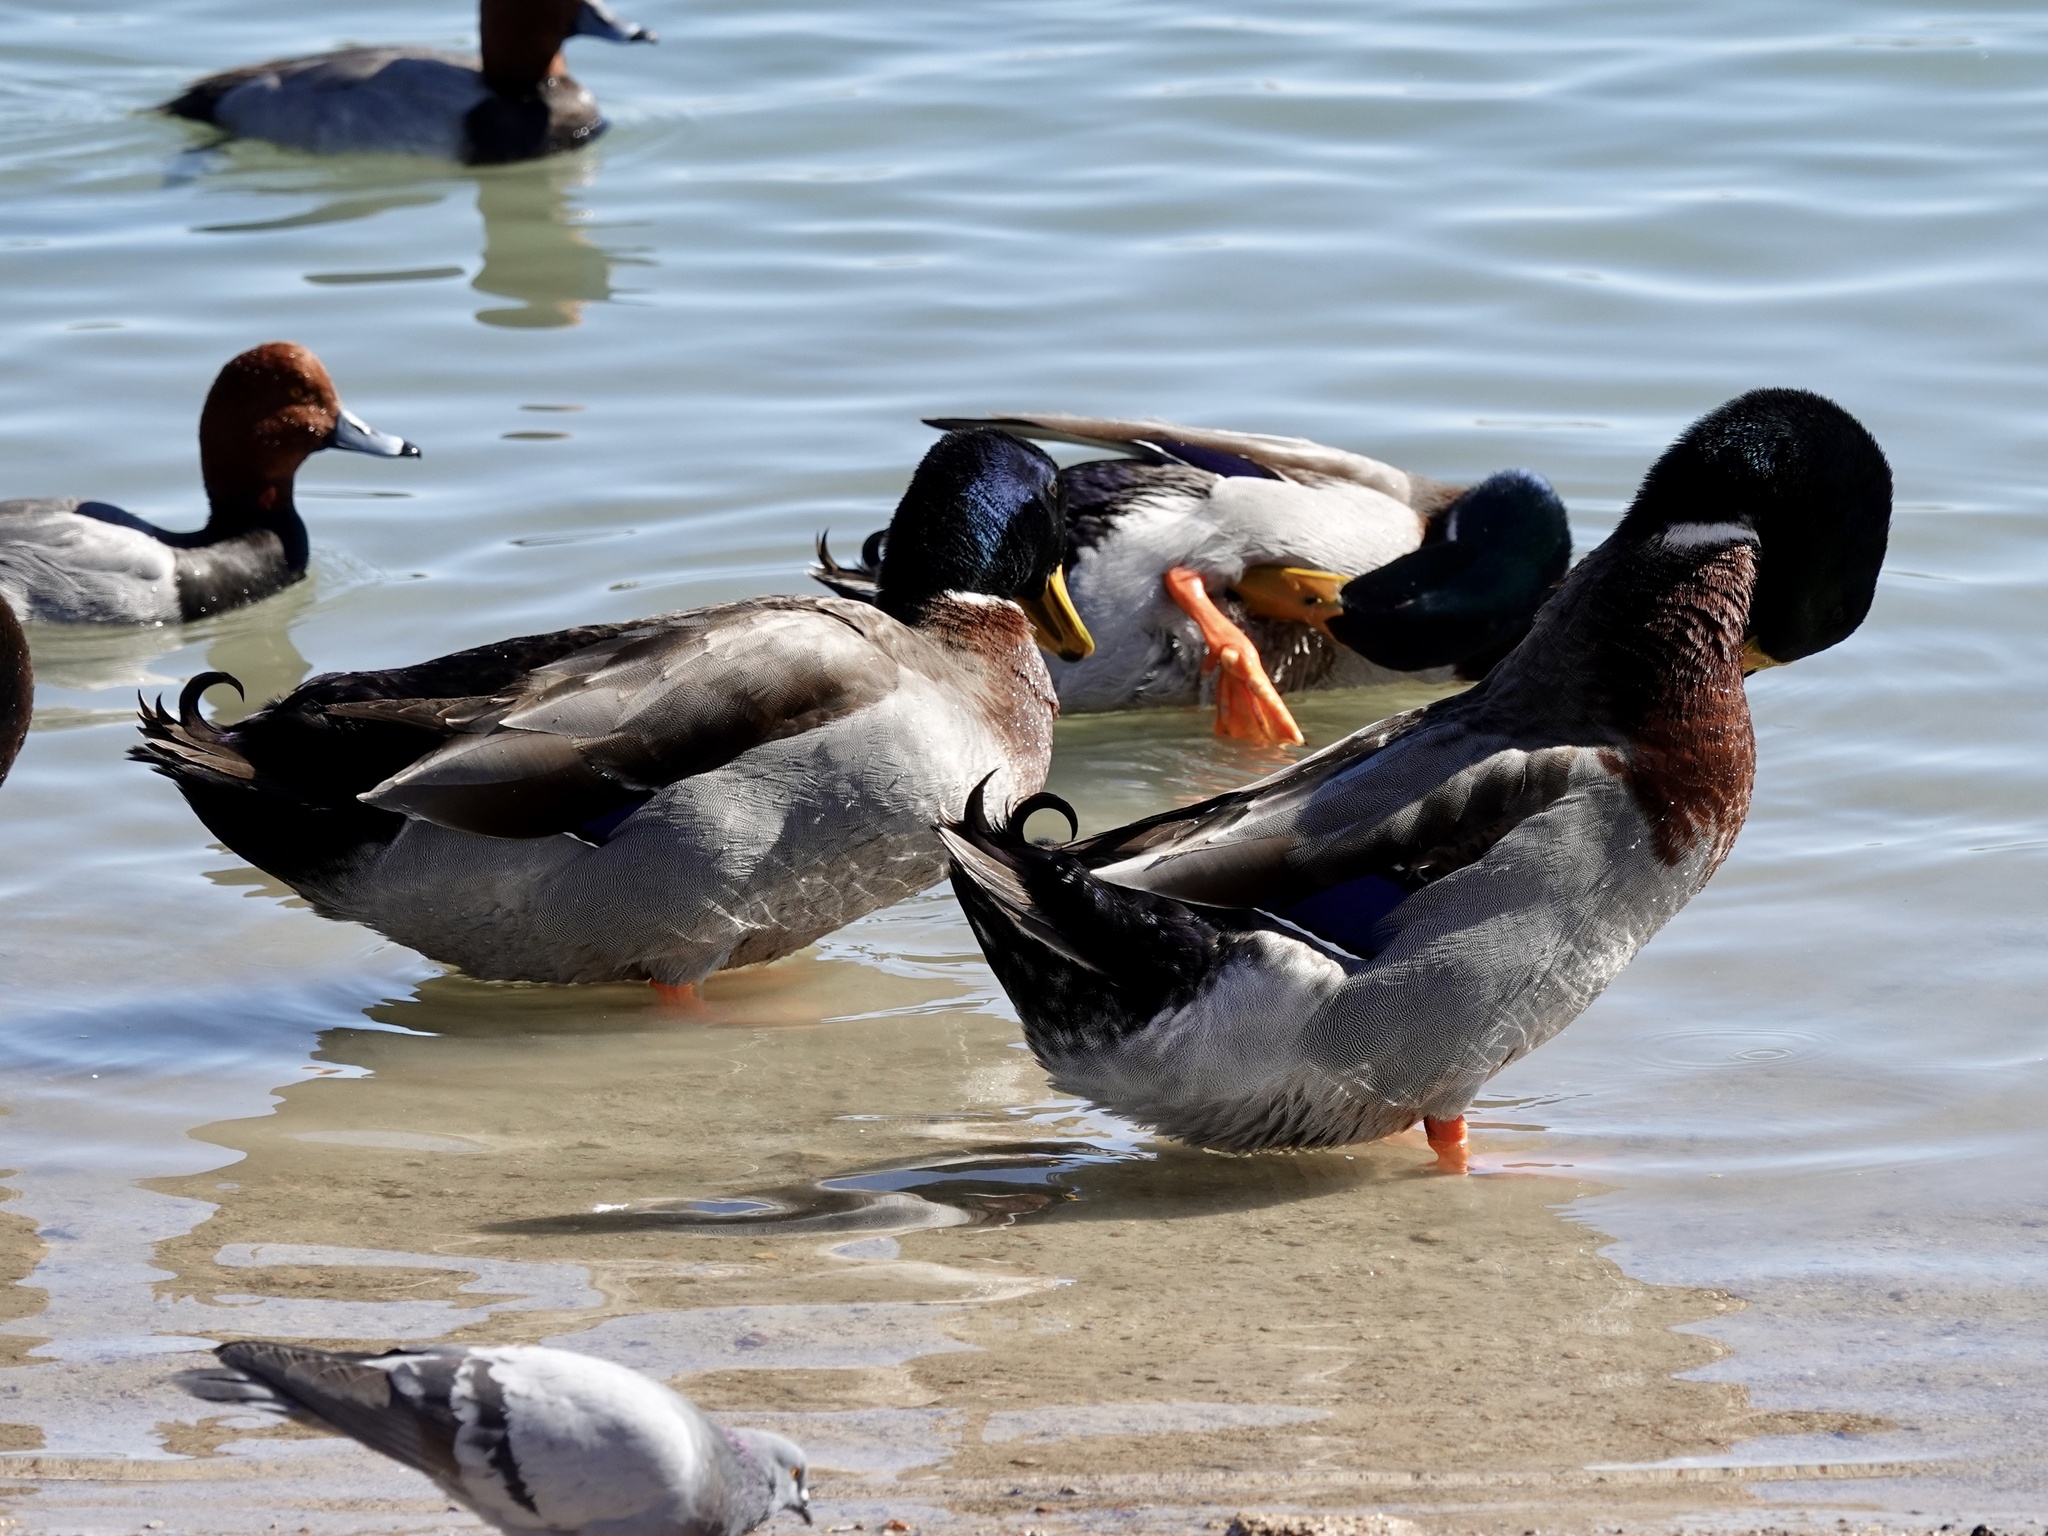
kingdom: Animalia
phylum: Chordata
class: Aves
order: Anseriformes
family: Anatidae
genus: Anas
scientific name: Anas platyrhynchos
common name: Mallard
